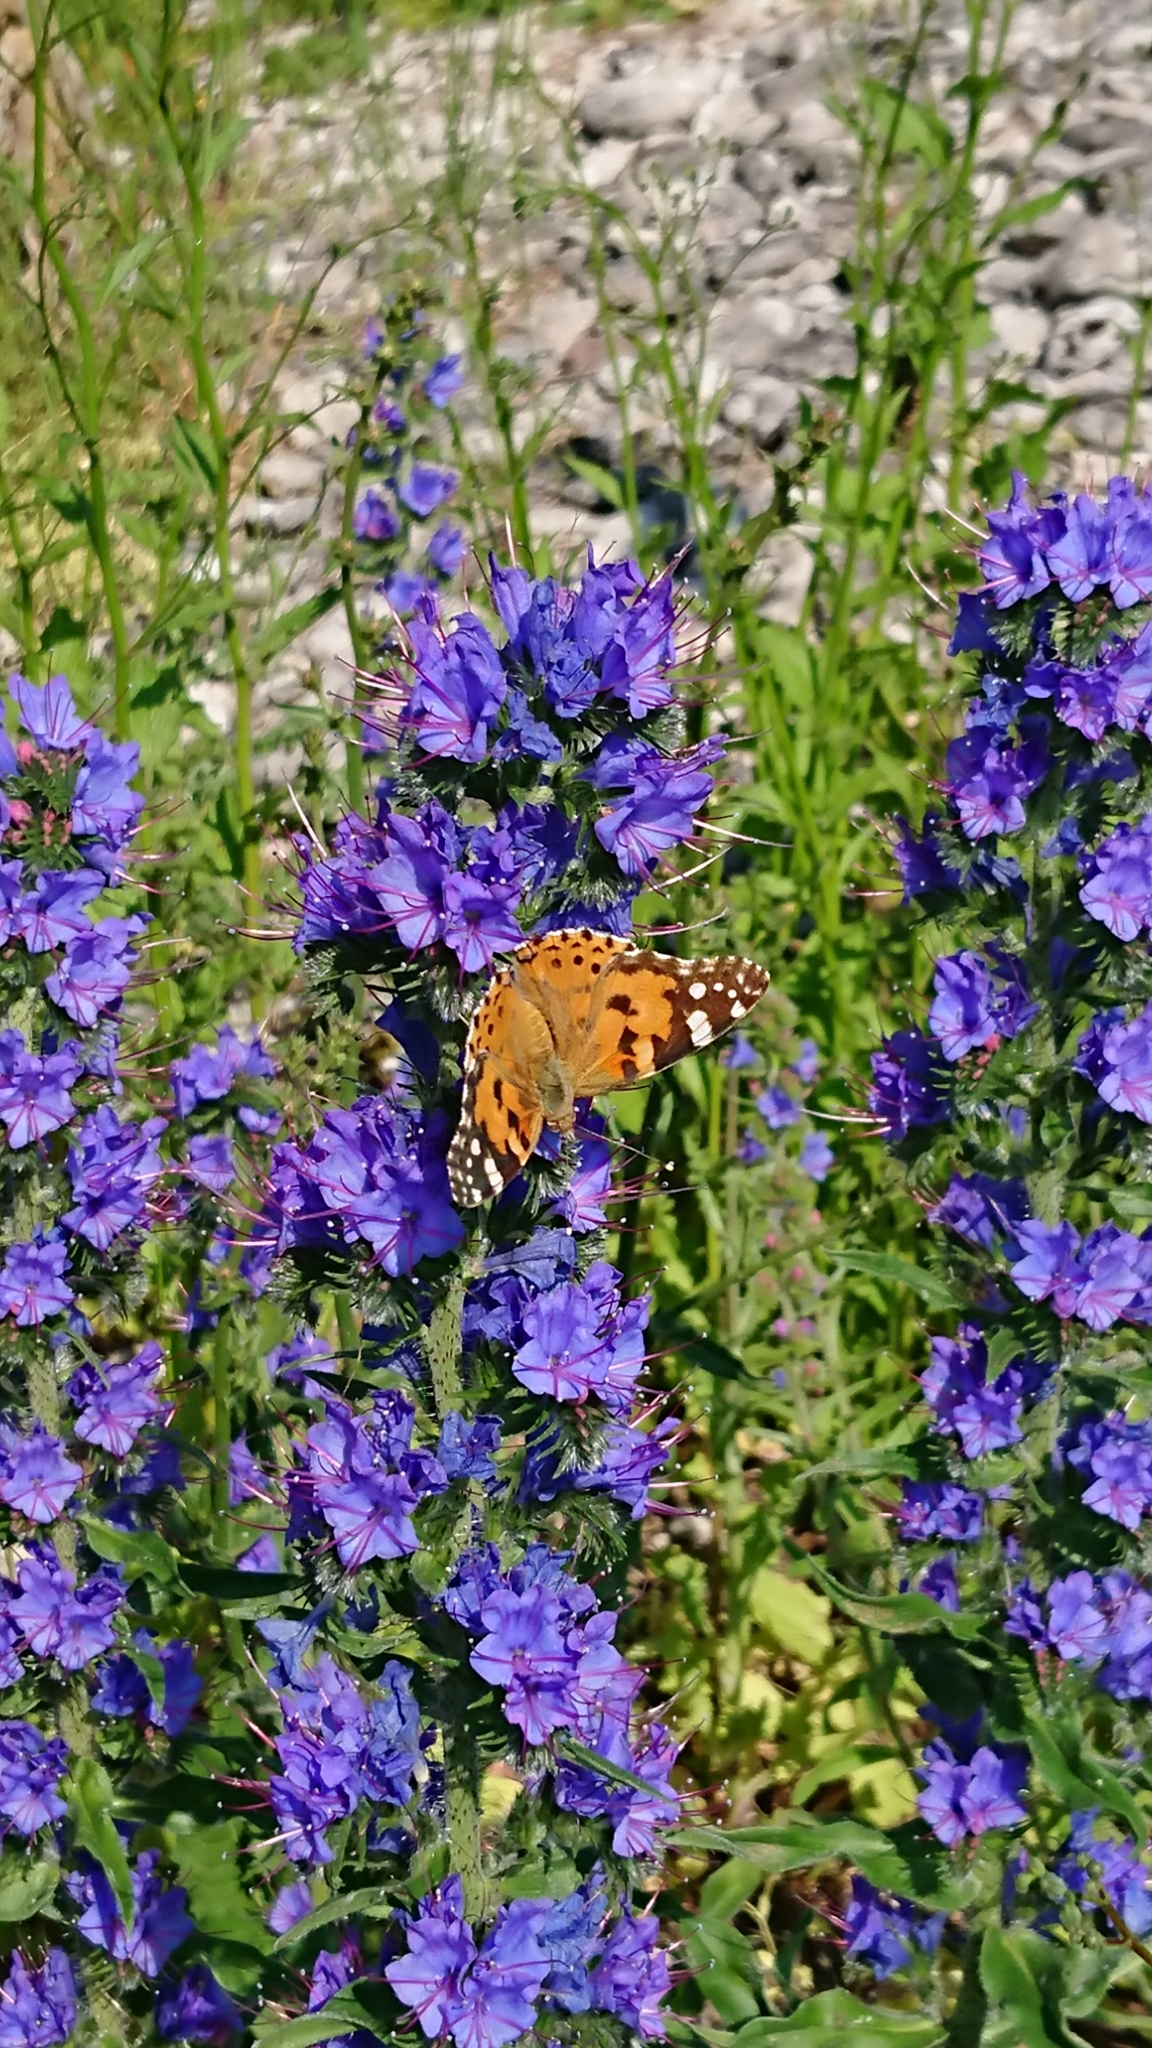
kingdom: Animalia
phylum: Arthropoda
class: Insecta
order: Lepidoptera
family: Nymphalidae
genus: Vanessa
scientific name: Vanessa cardui
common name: Painted lady
